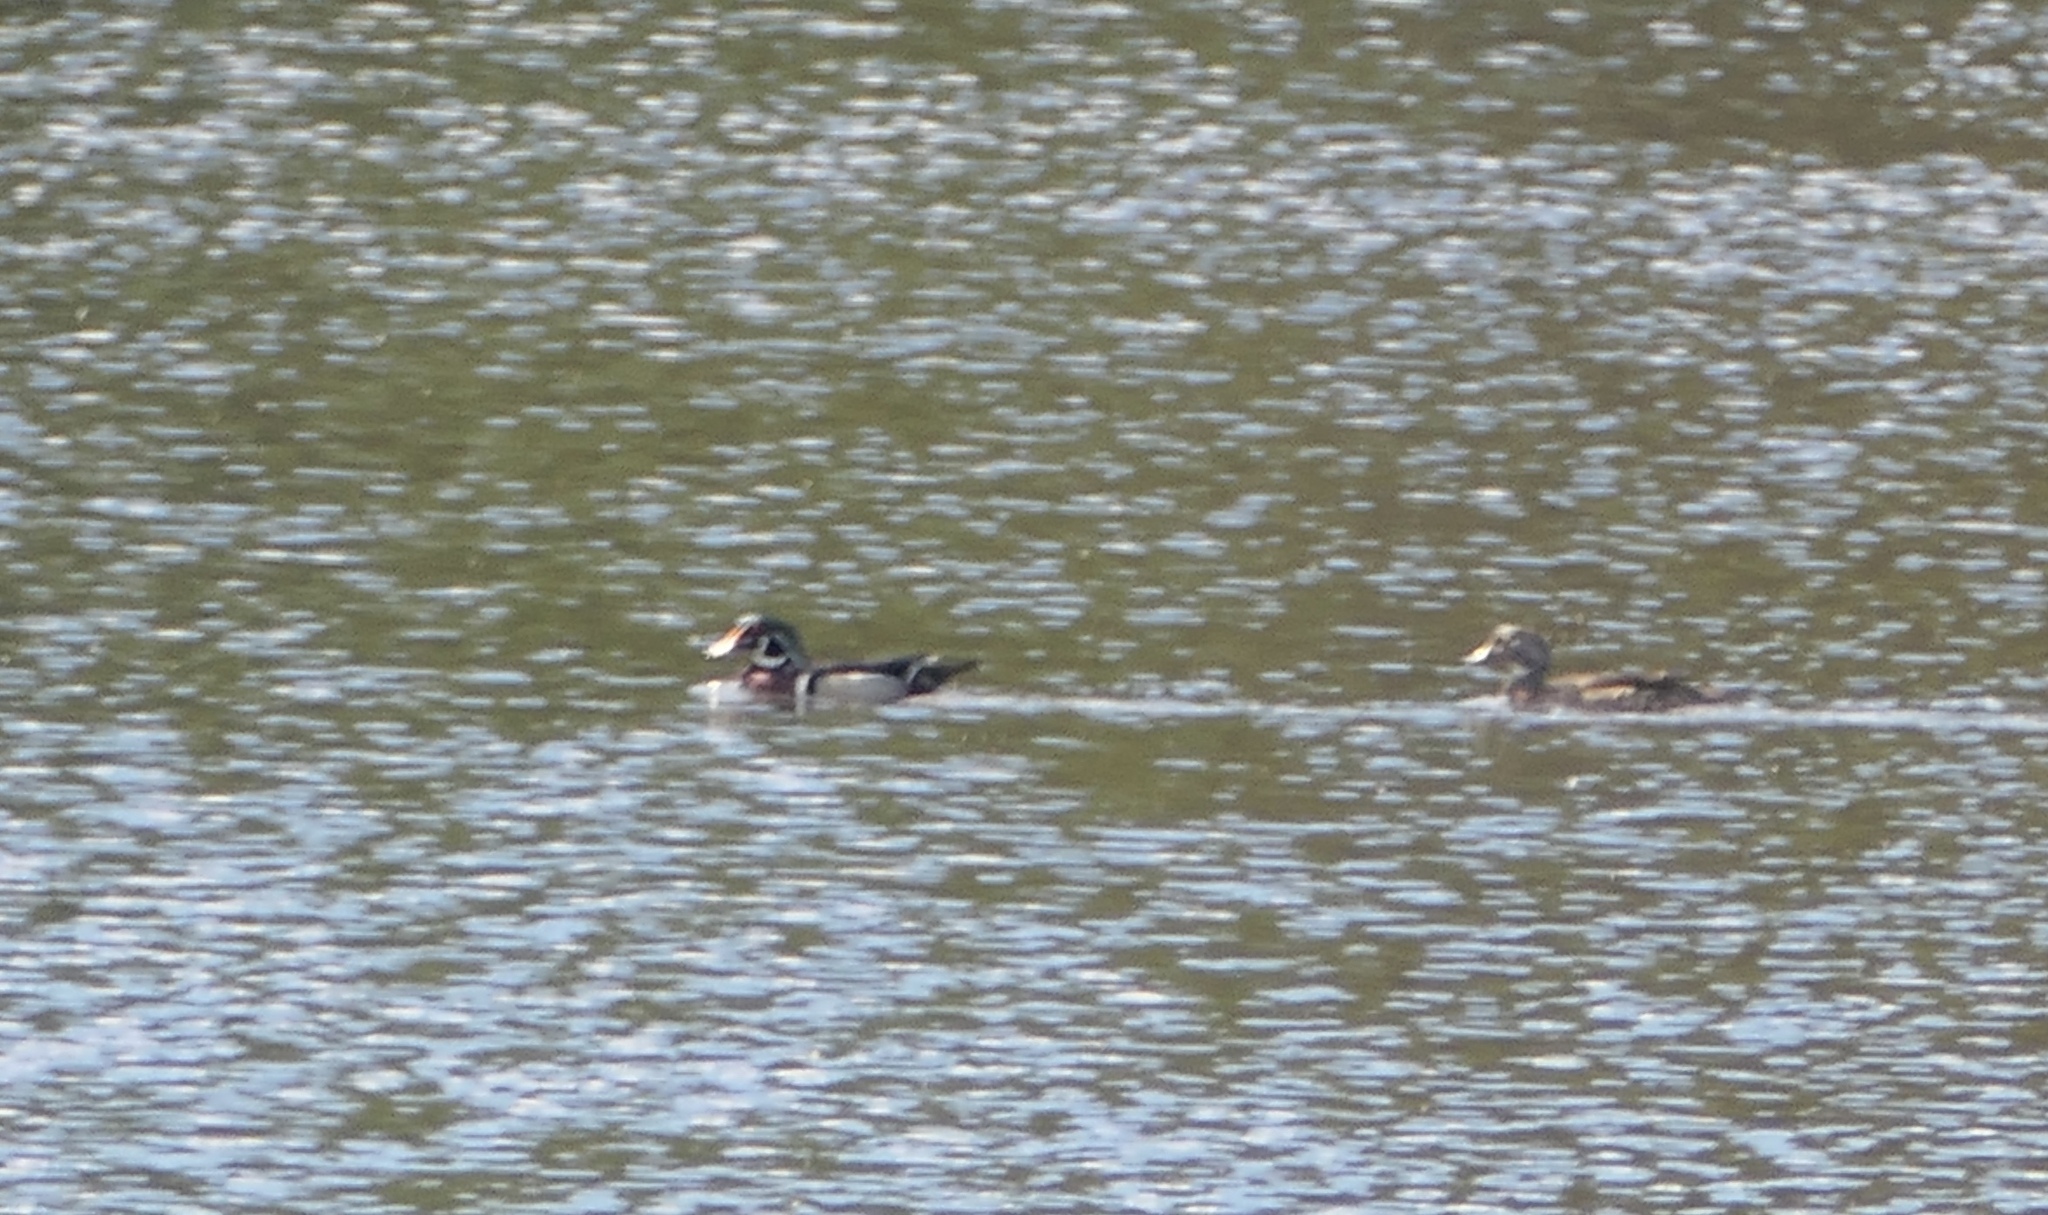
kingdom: Animalia
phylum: Chordata
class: Aves
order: Anseriformes
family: Anatidae
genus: Aix
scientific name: Aix sponsa
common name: Wood duck
